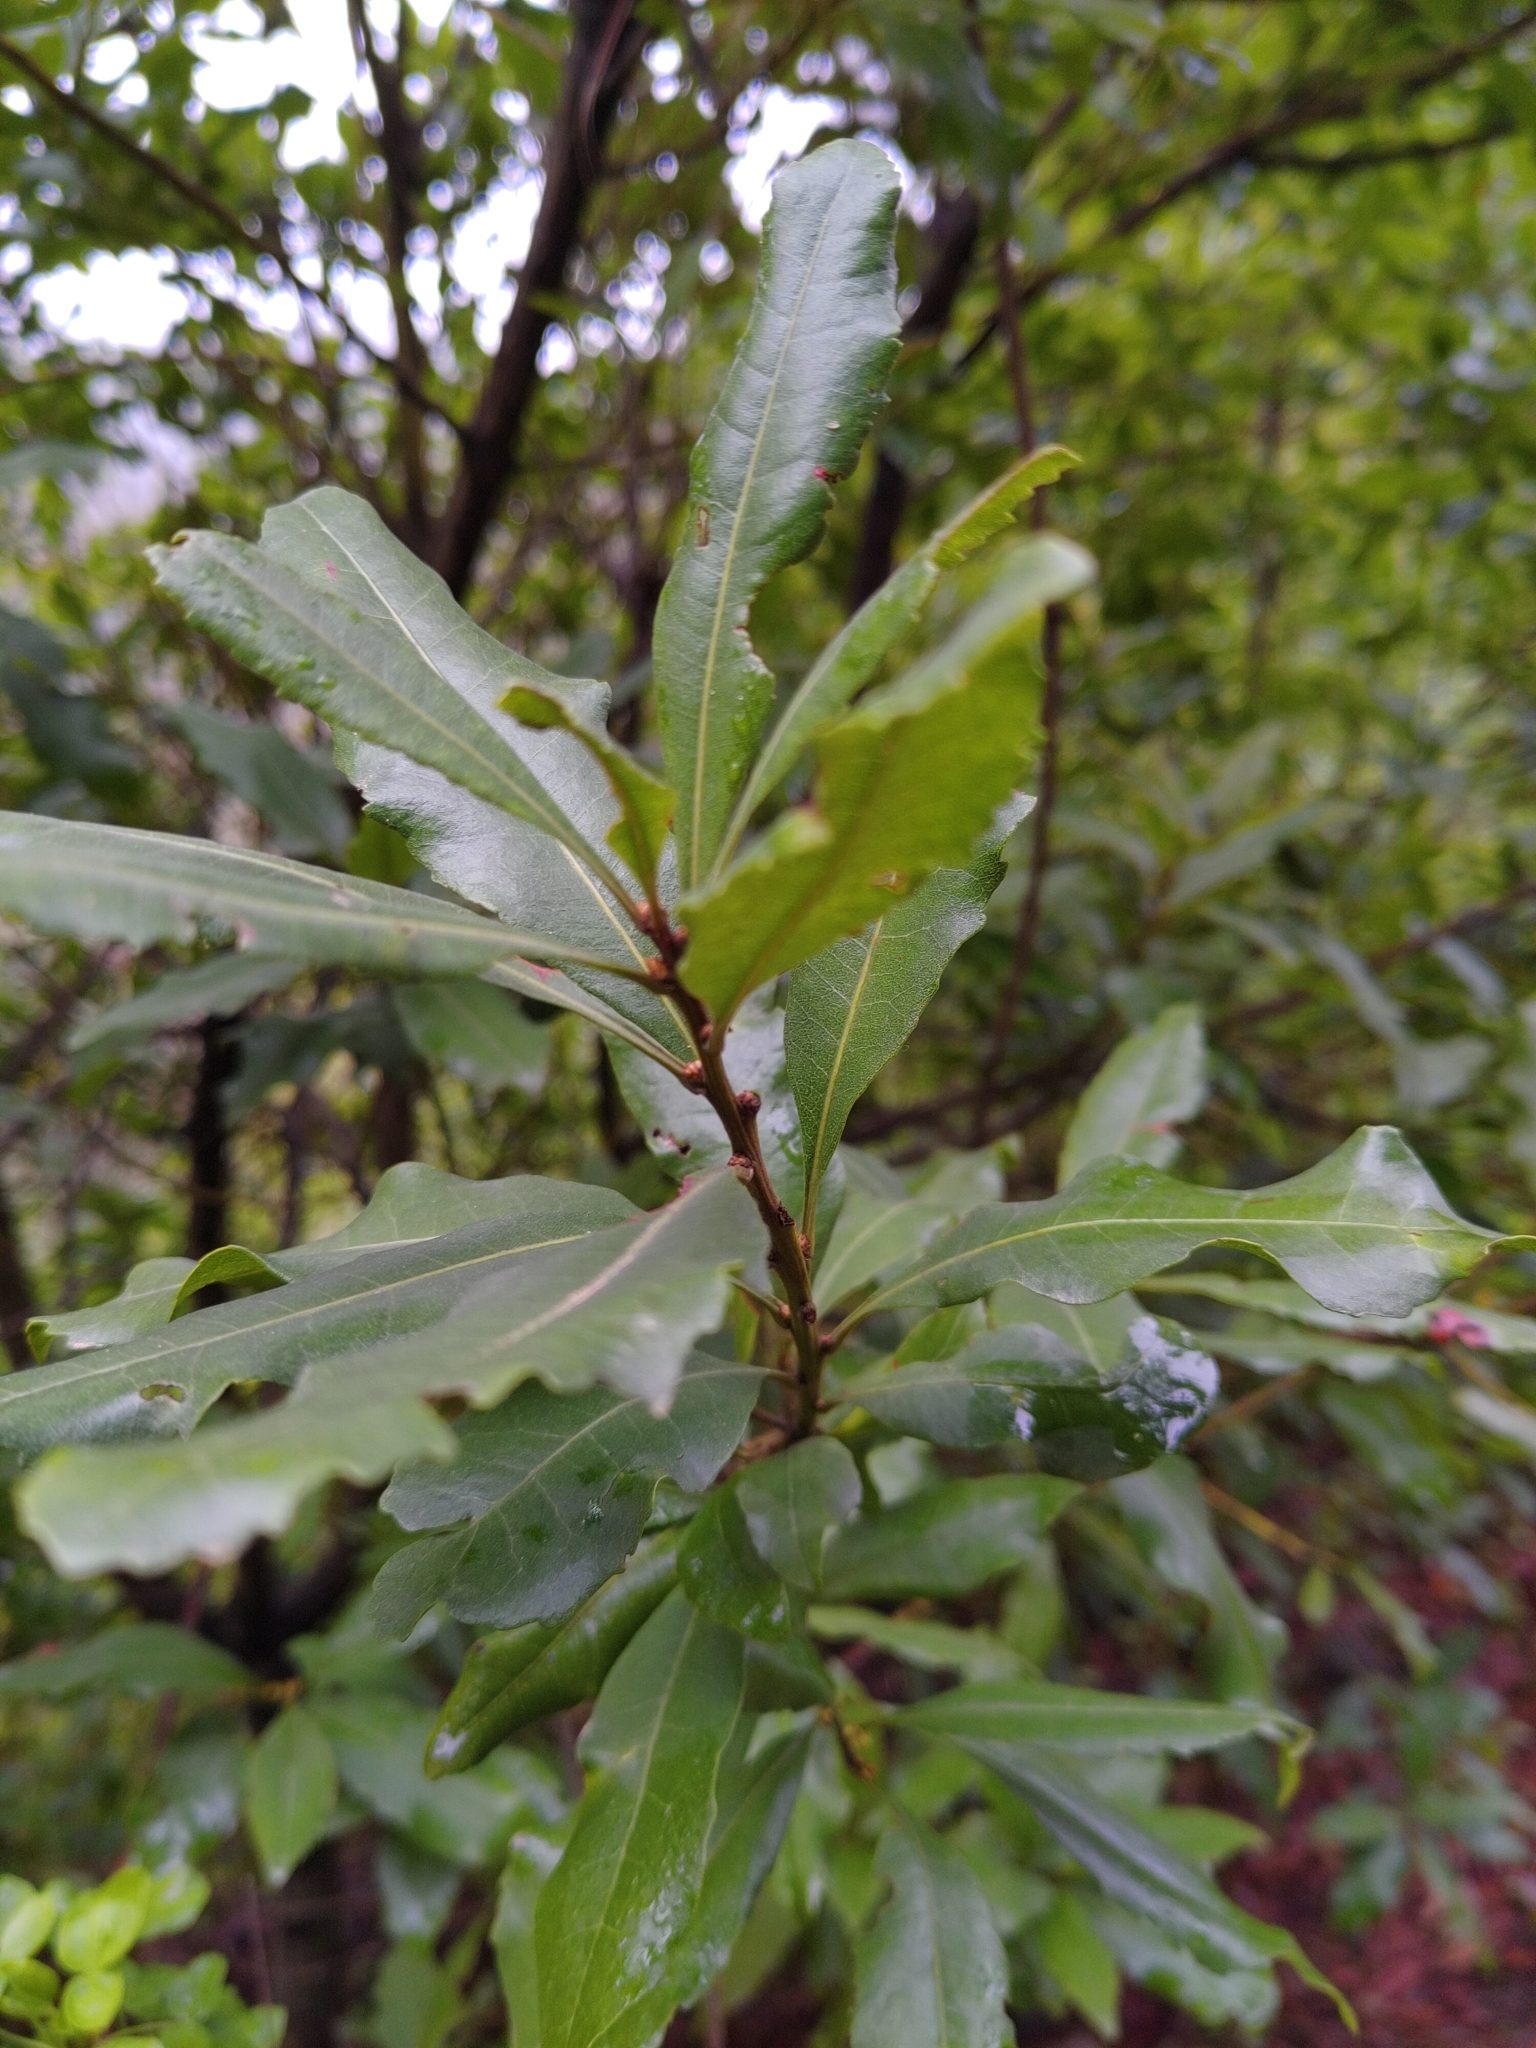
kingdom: Plantae
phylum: Tracheophyta
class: Magnoliopsida
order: Fagales
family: Myricaceae
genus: Morella
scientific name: Morella faya
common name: Firetree
